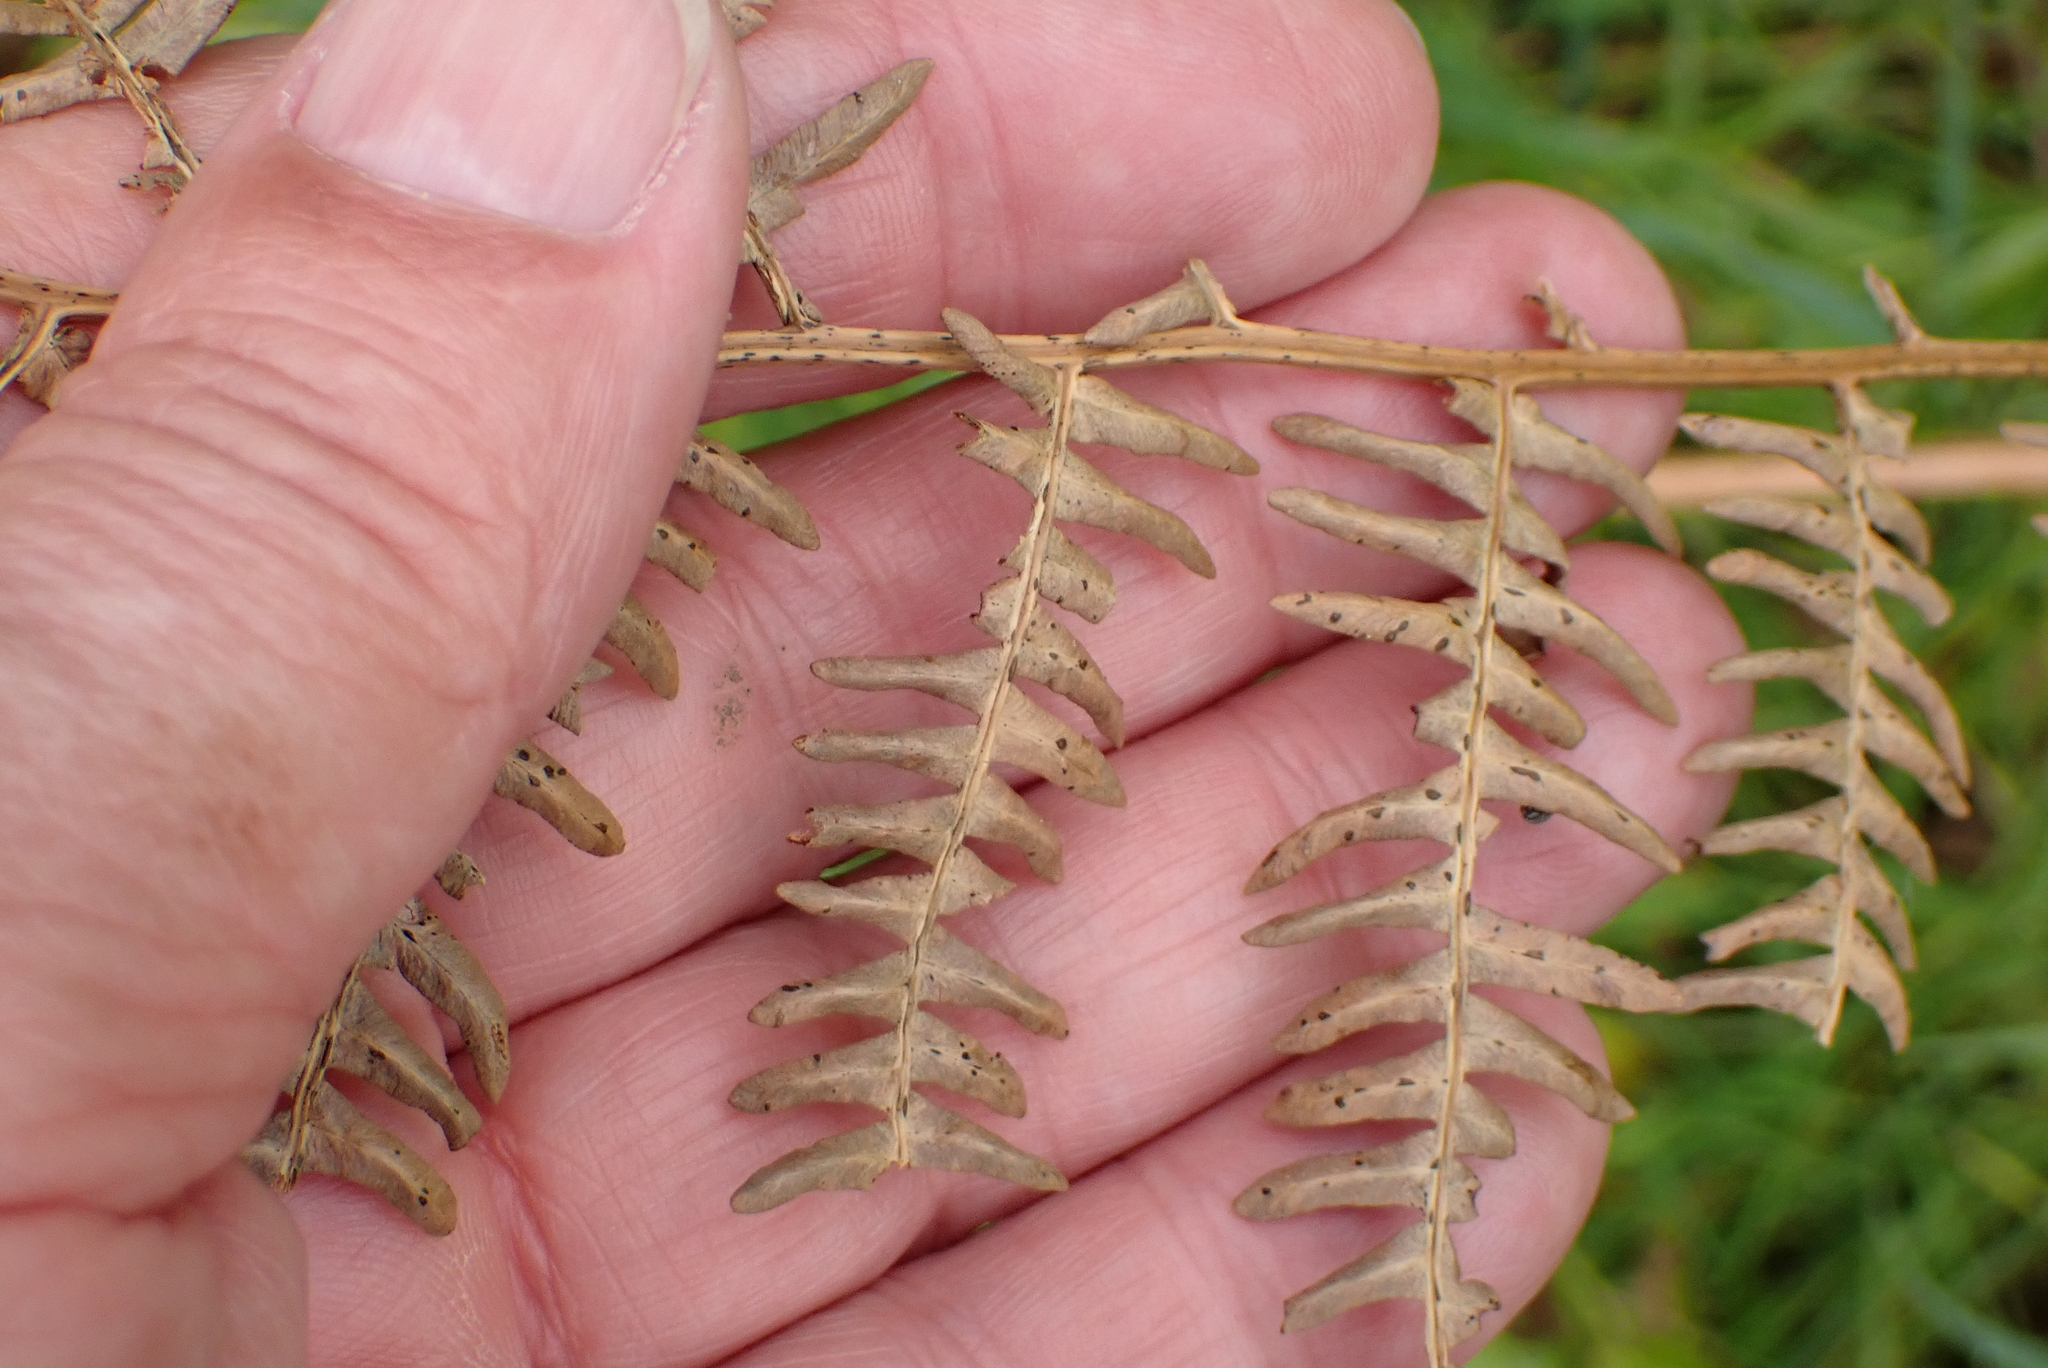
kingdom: Plantae
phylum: Tracheophyta
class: Polypodiopsida
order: Polypodiales
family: Dennstaedtiaceae
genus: Pteridium
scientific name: Pteridium aquilinum
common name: Bracken
